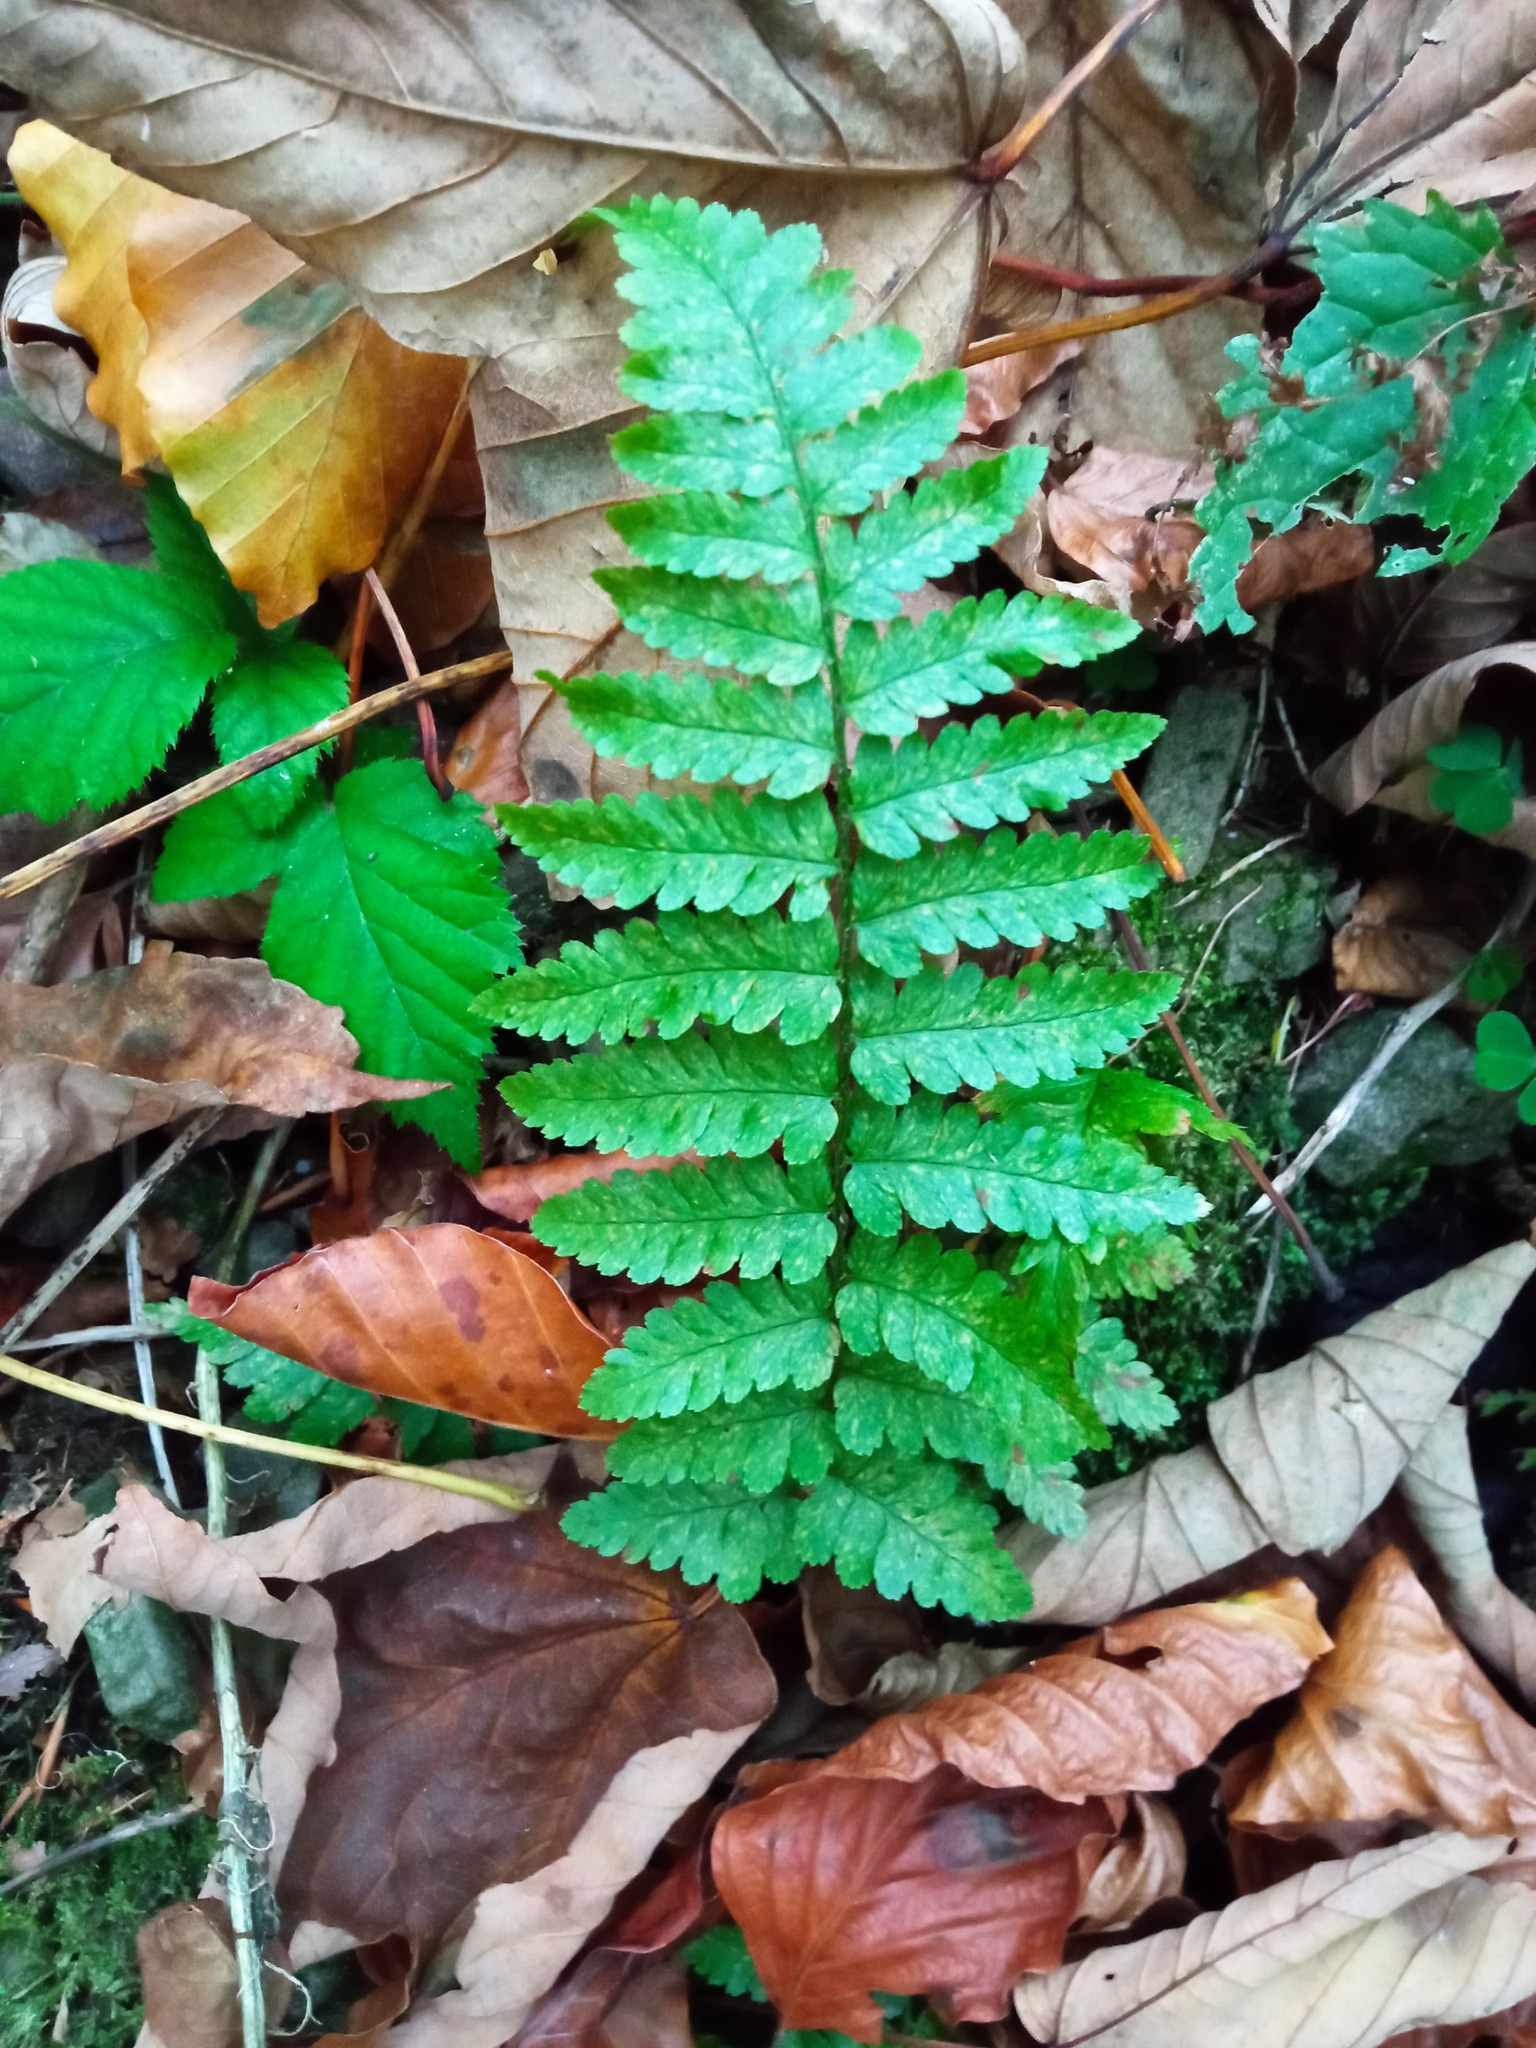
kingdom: Plantae
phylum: Tracheophyta
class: Polypodiopsida
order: Polypodiales
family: Dryopteridaceae
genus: Dryopteris
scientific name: Dryopteris filix-mas
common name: Male fern
